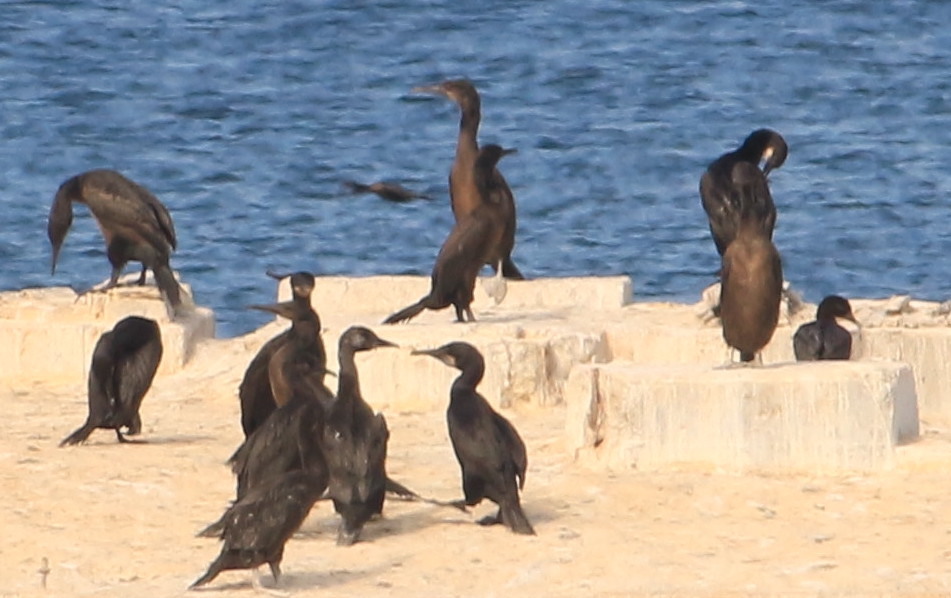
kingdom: Animalia
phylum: Chordata
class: Aves
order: Suliformes
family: Phalacrocoracidae
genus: Urile
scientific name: Urile penicillatus
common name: Brandt's cormorant
